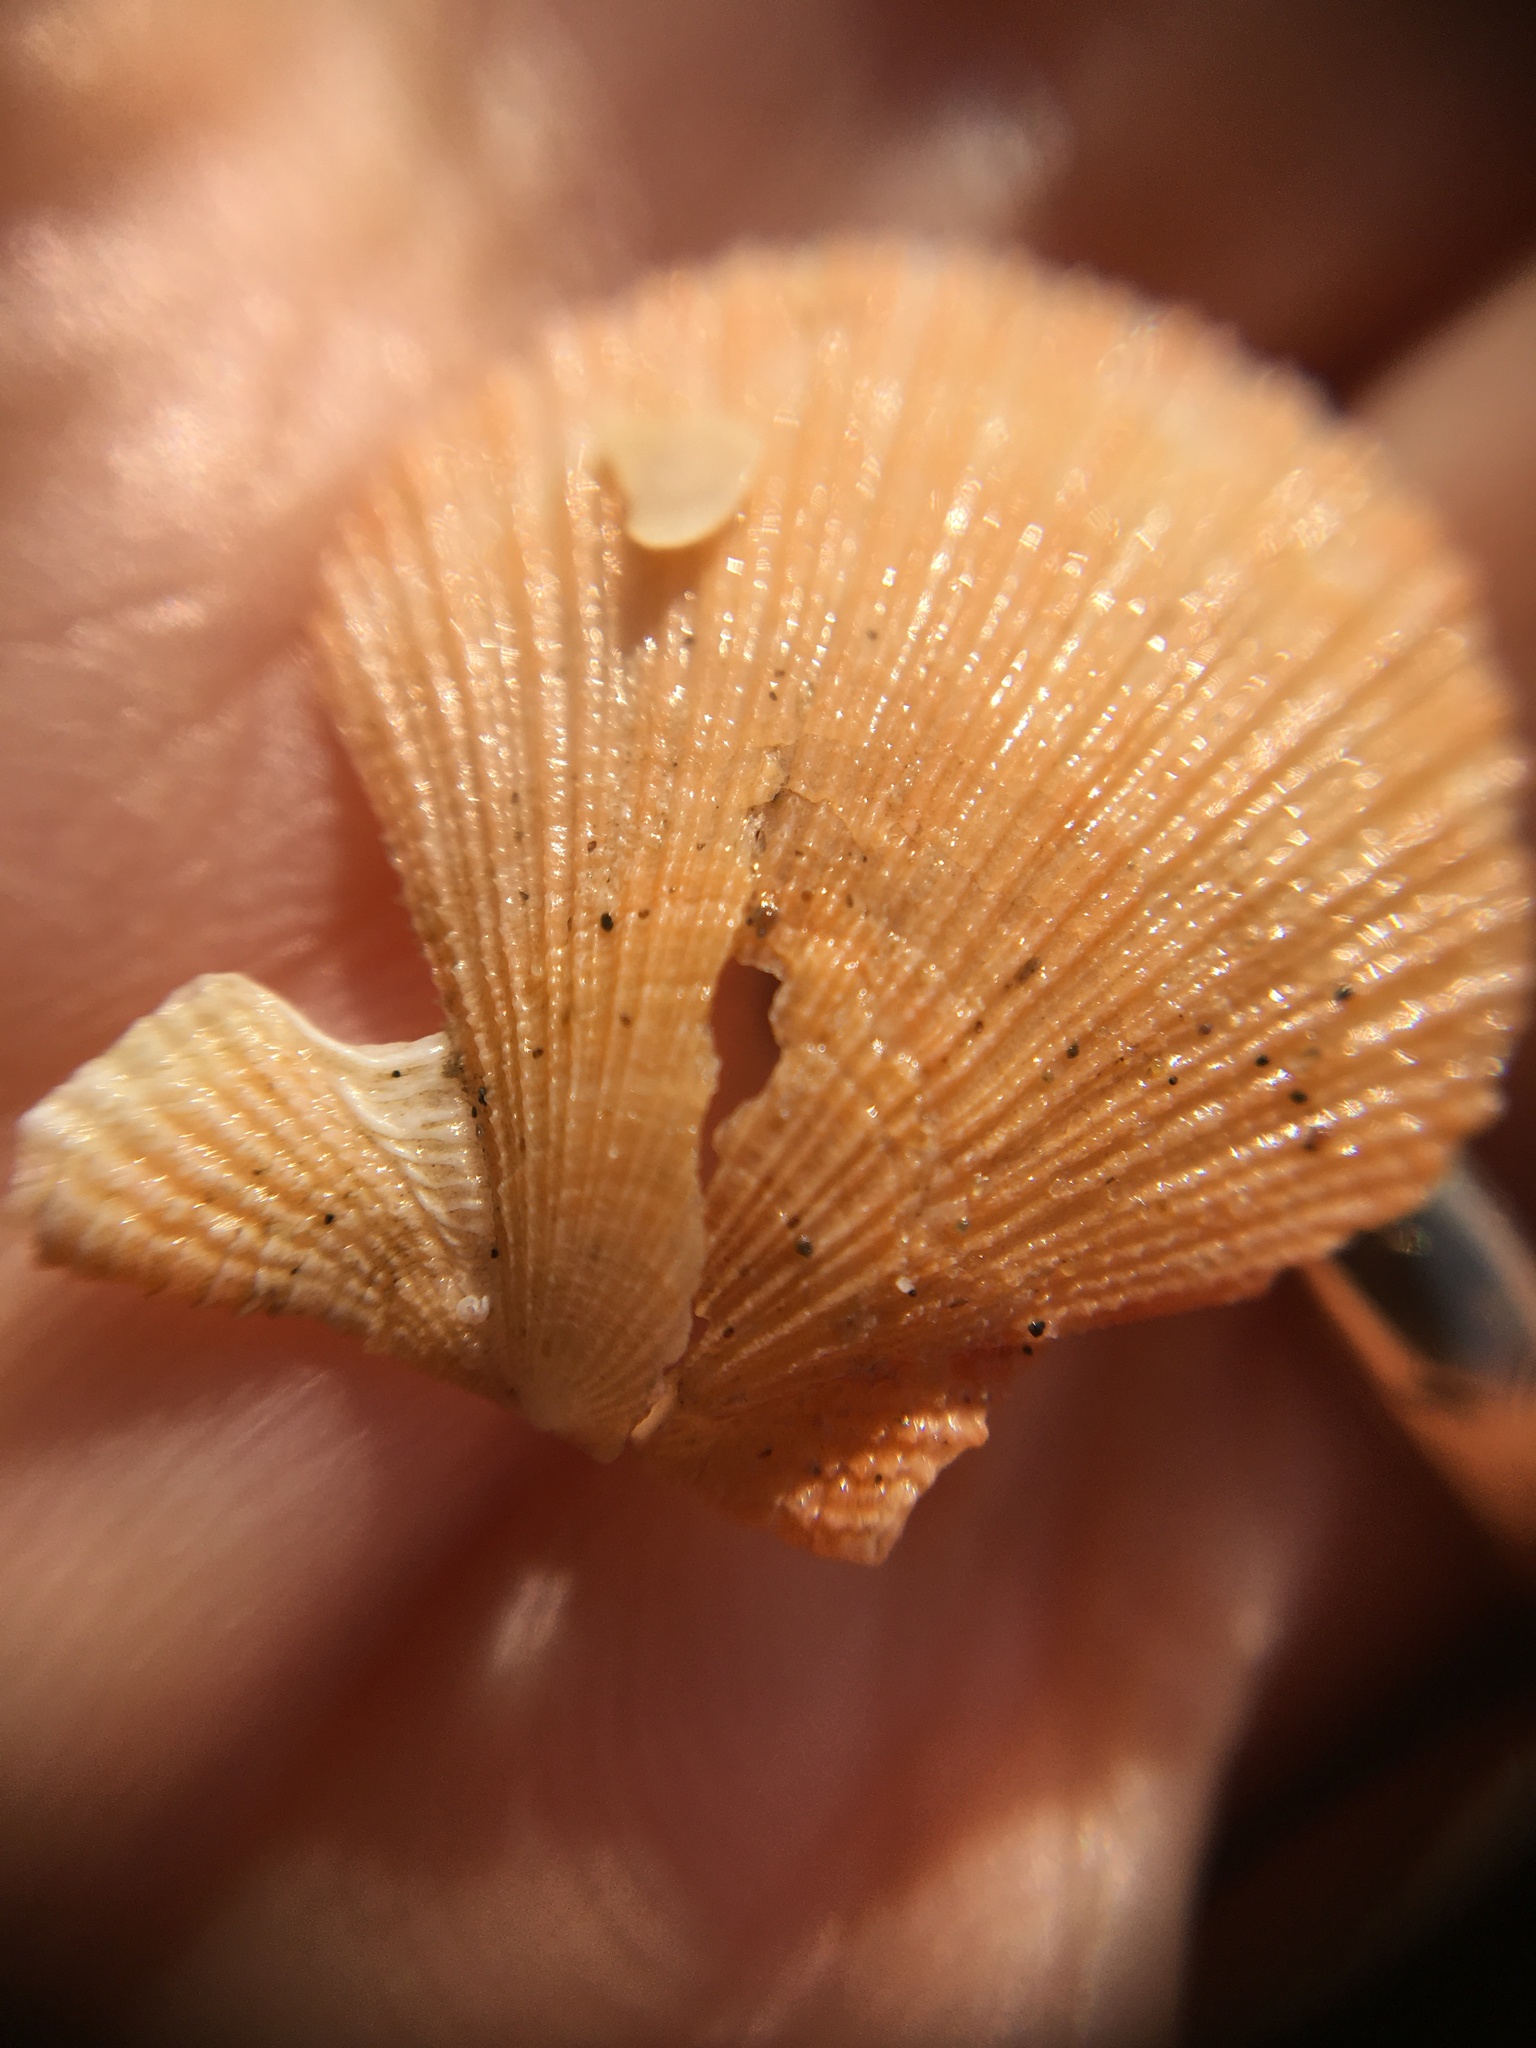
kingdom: Animalia
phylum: Mollusca
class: Bivalvia
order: Pectinida
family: Pectinidae
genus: Crassadoma
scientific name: Crassadoma gigantea
